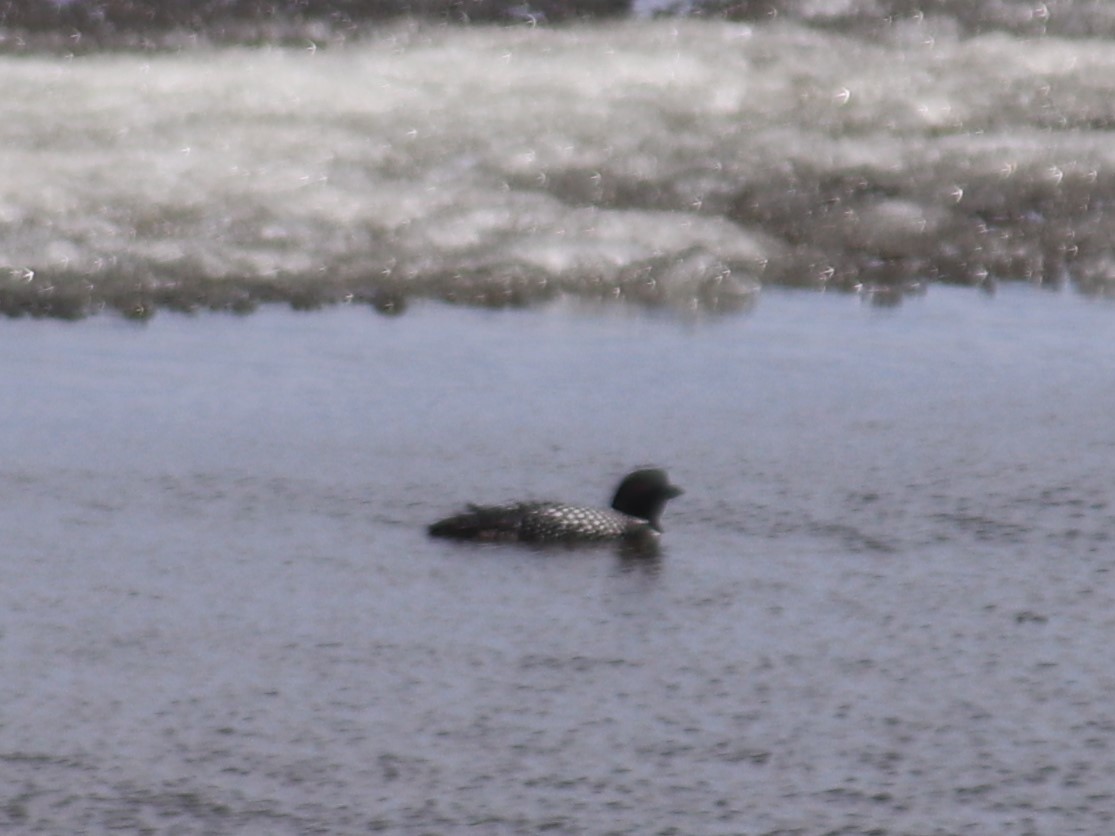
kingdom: Animalia
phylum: Chordata
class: Aves
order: Gaviiformes
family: Gaviidae
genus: Gavia
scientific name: Gavia immer
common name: Common loon
